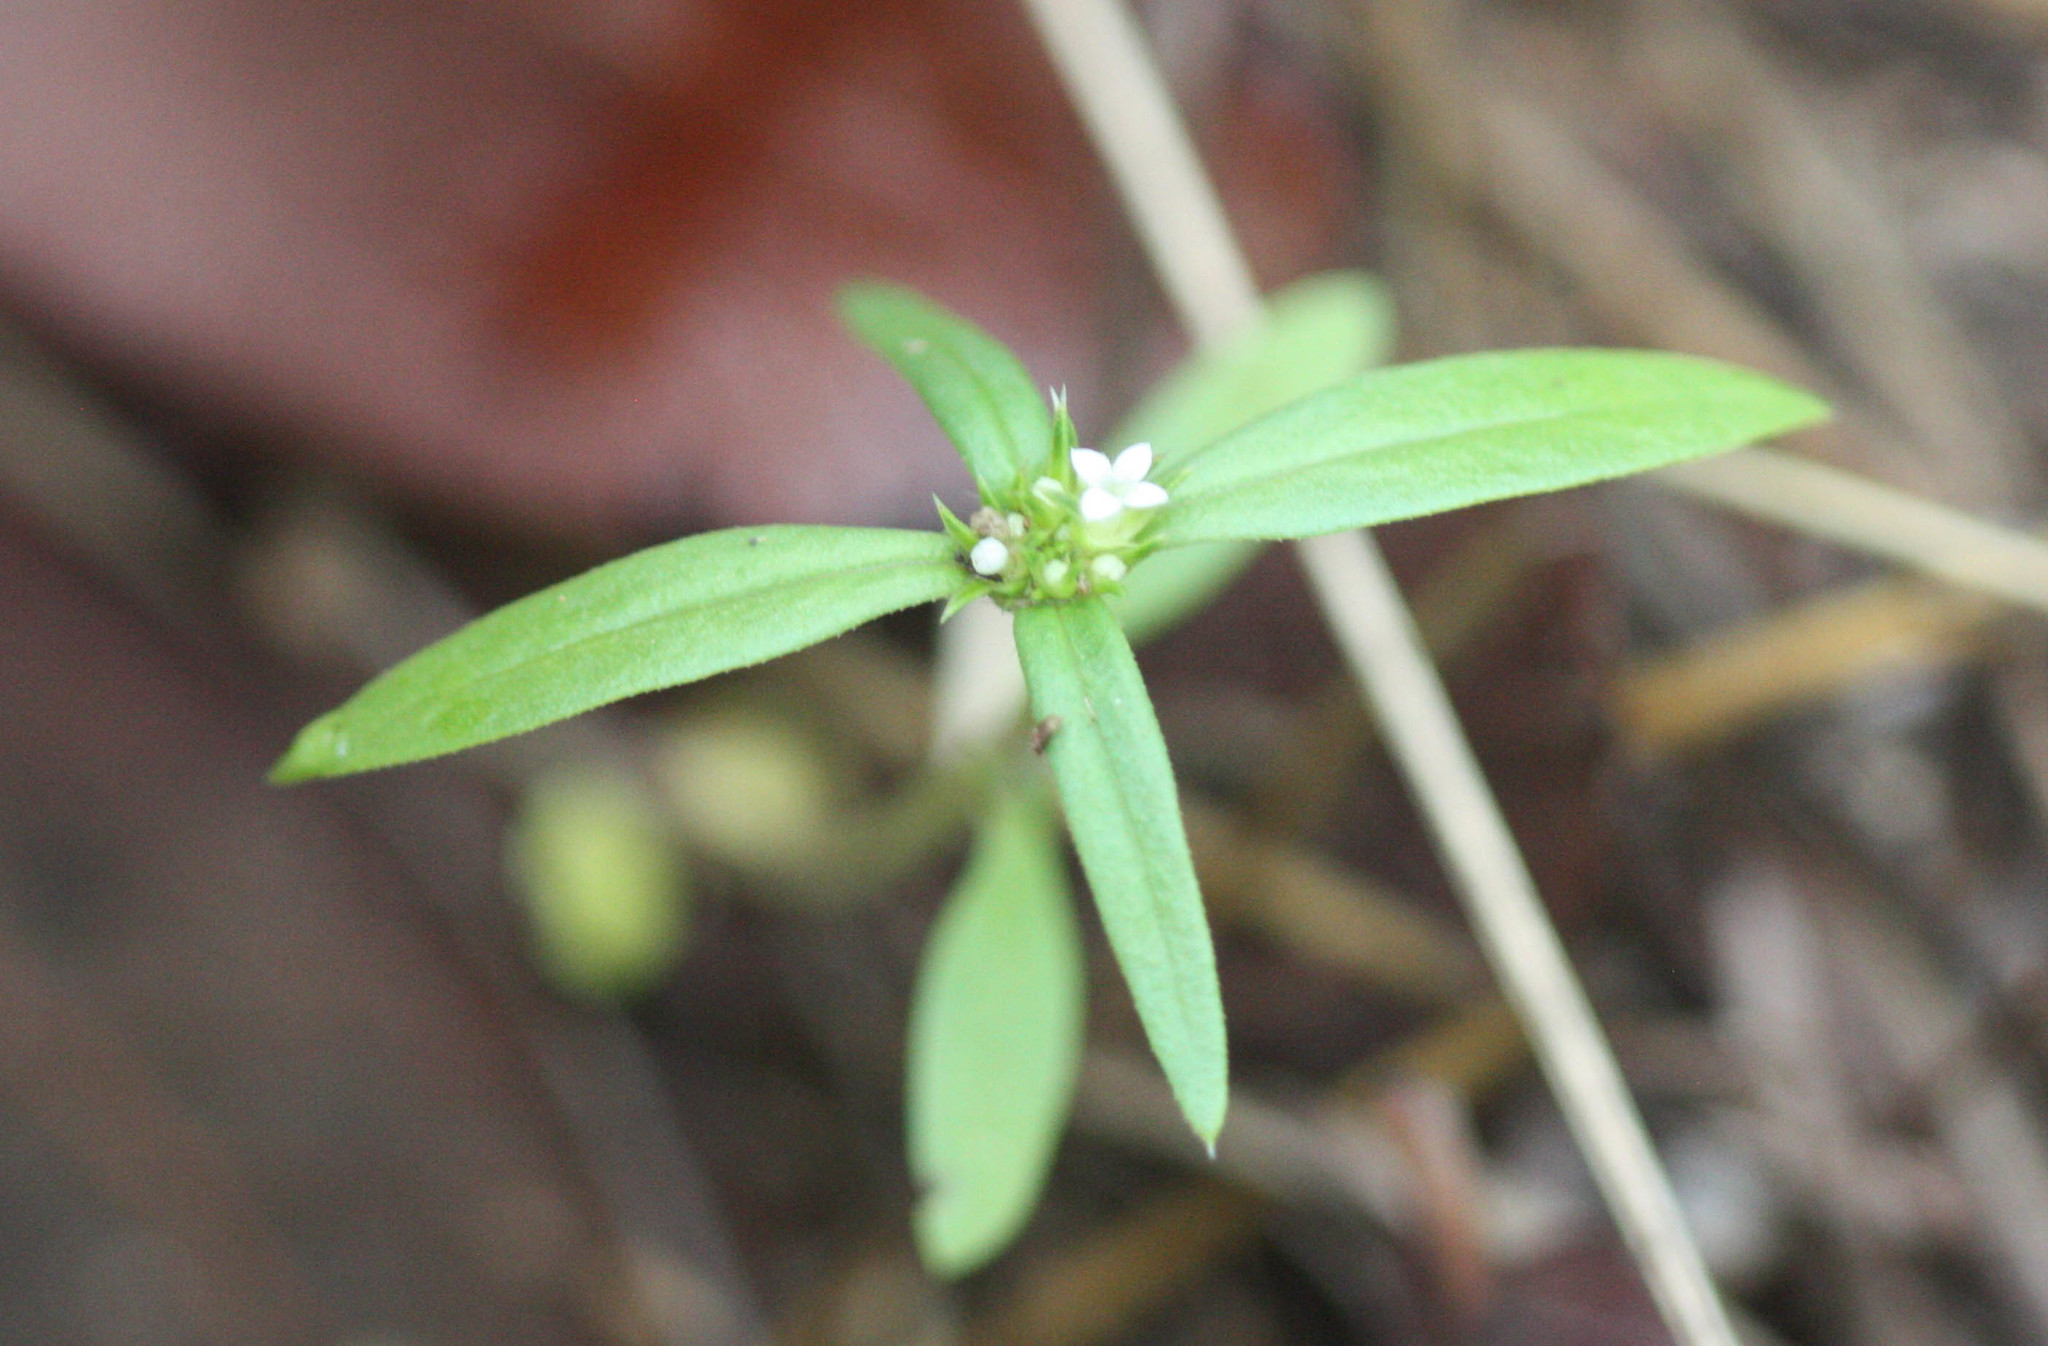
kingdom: Plantae
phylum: Tracheophyta
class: Magnoliopsida
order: Gentianales
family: Rubiaceae
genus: Mitracarpus
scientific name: Mitracarpus breviflorus
